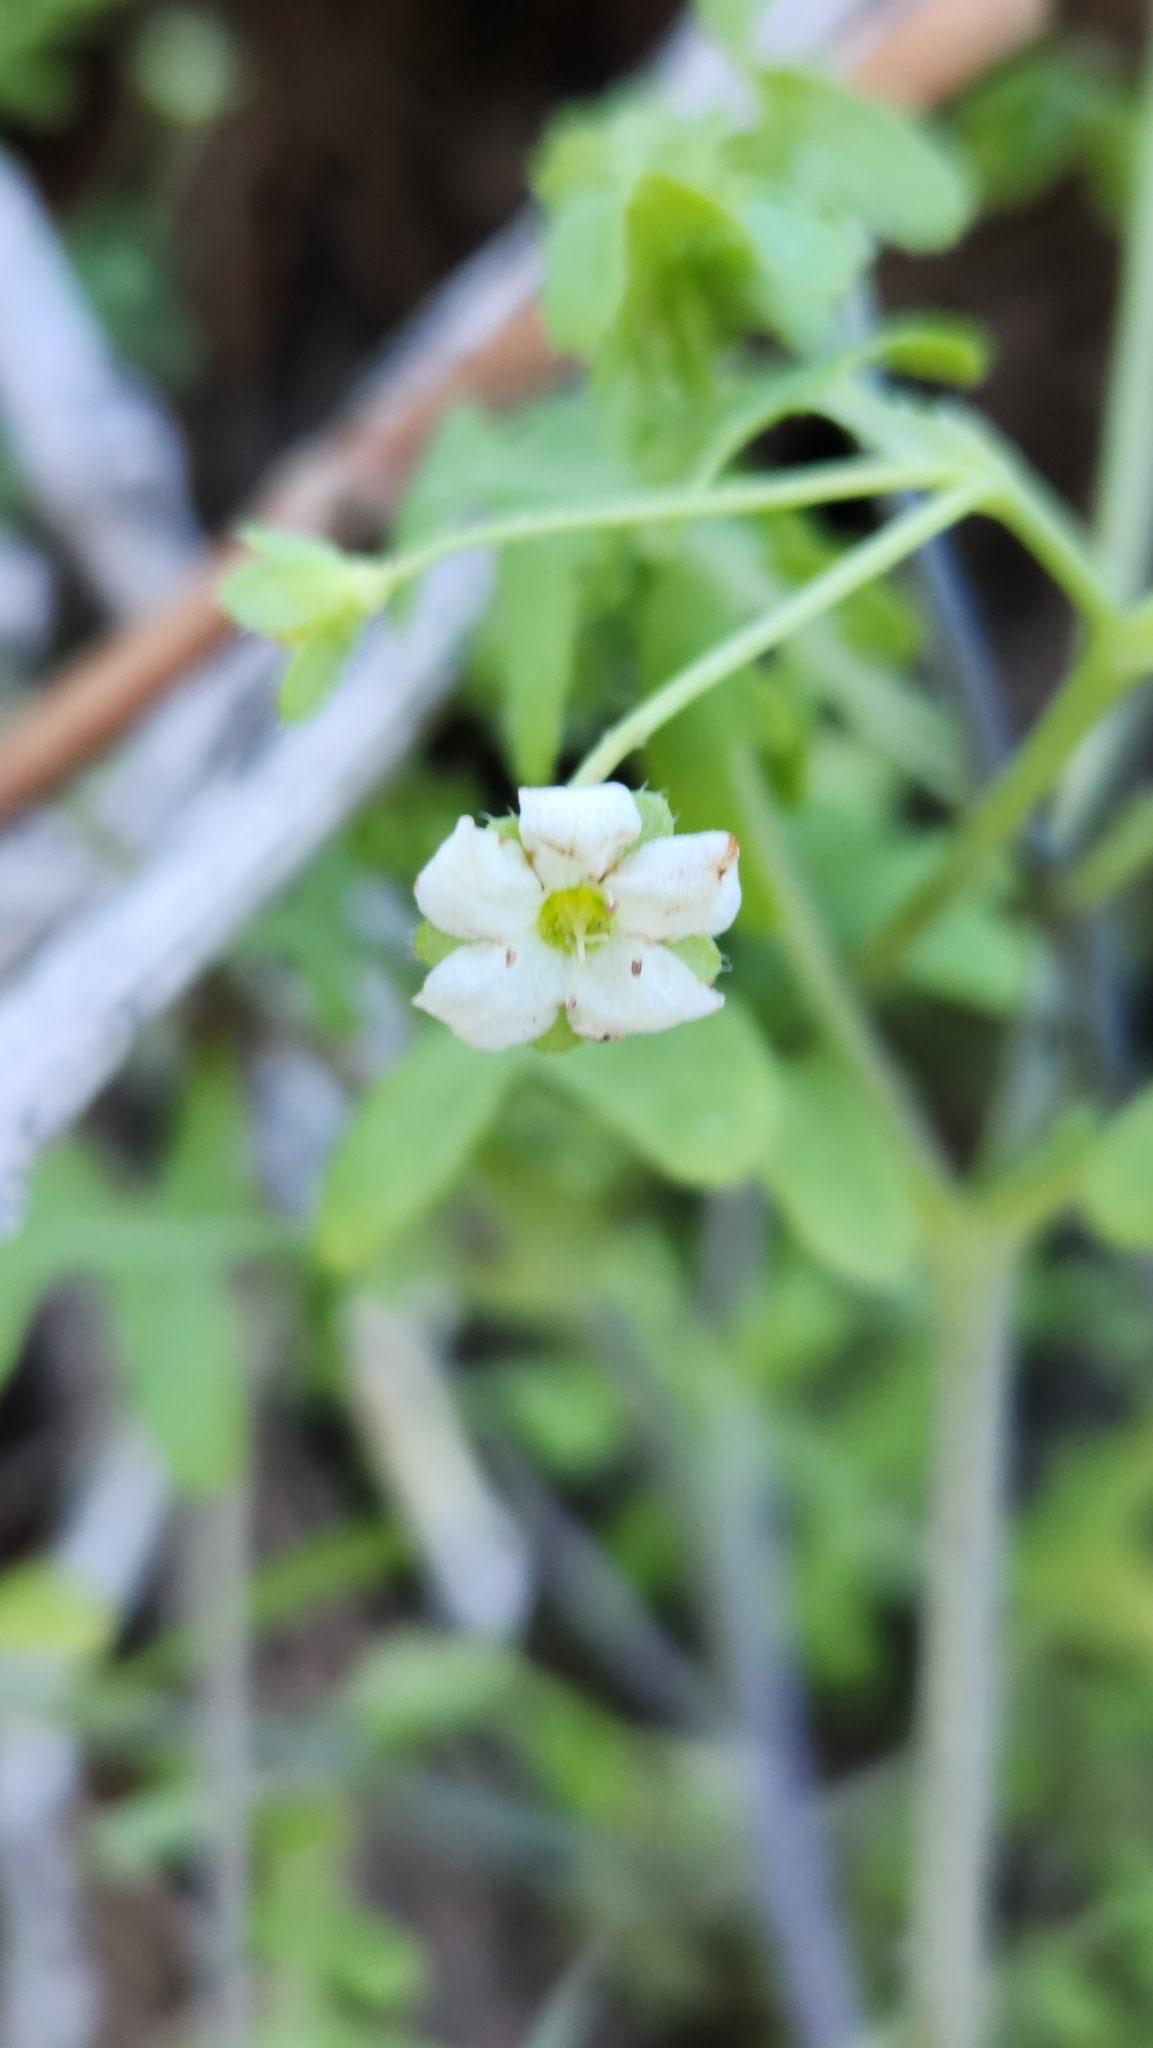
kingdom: Plantae
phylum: Tracheophyta
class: Magnoliopsida
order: Boraginales
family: Hydrophyllaceae
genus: Pholistoma
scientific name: Pholistoma membranaceum
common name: White fiesta-flower
